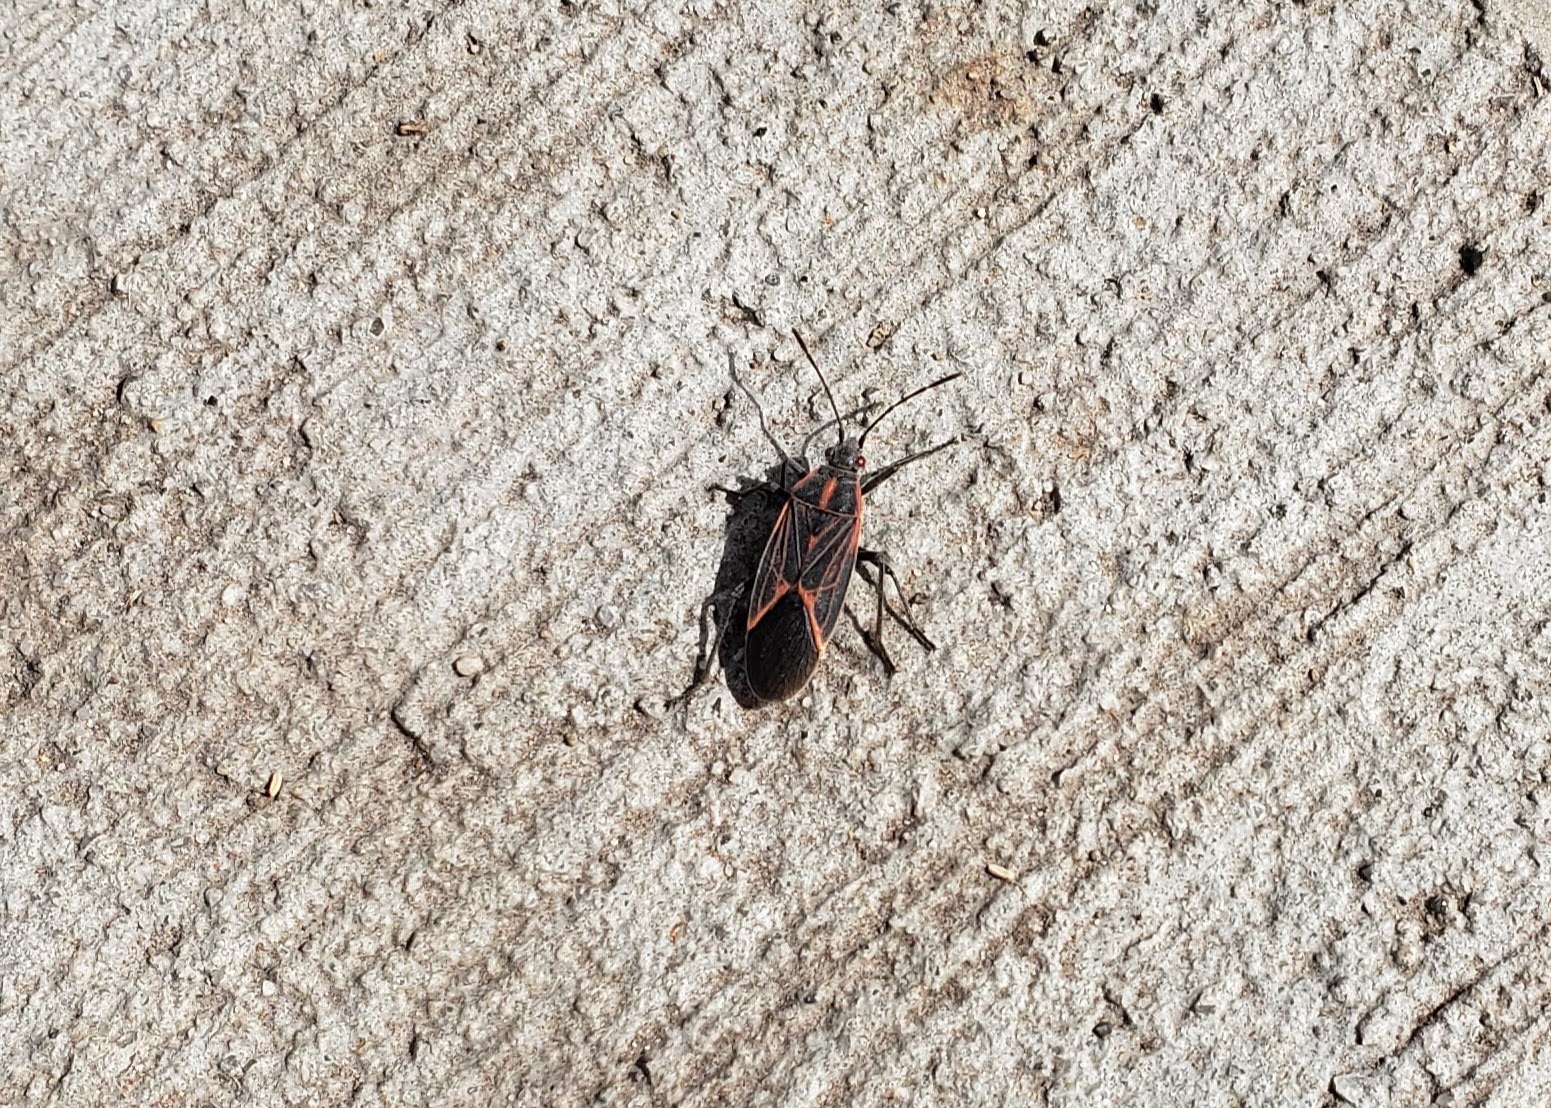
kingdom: Animalia
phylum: Arthropoda
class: Insecta
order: Hemiptera
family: Rhopalidae
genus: Boisea
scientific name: Boisea rubrolineata
